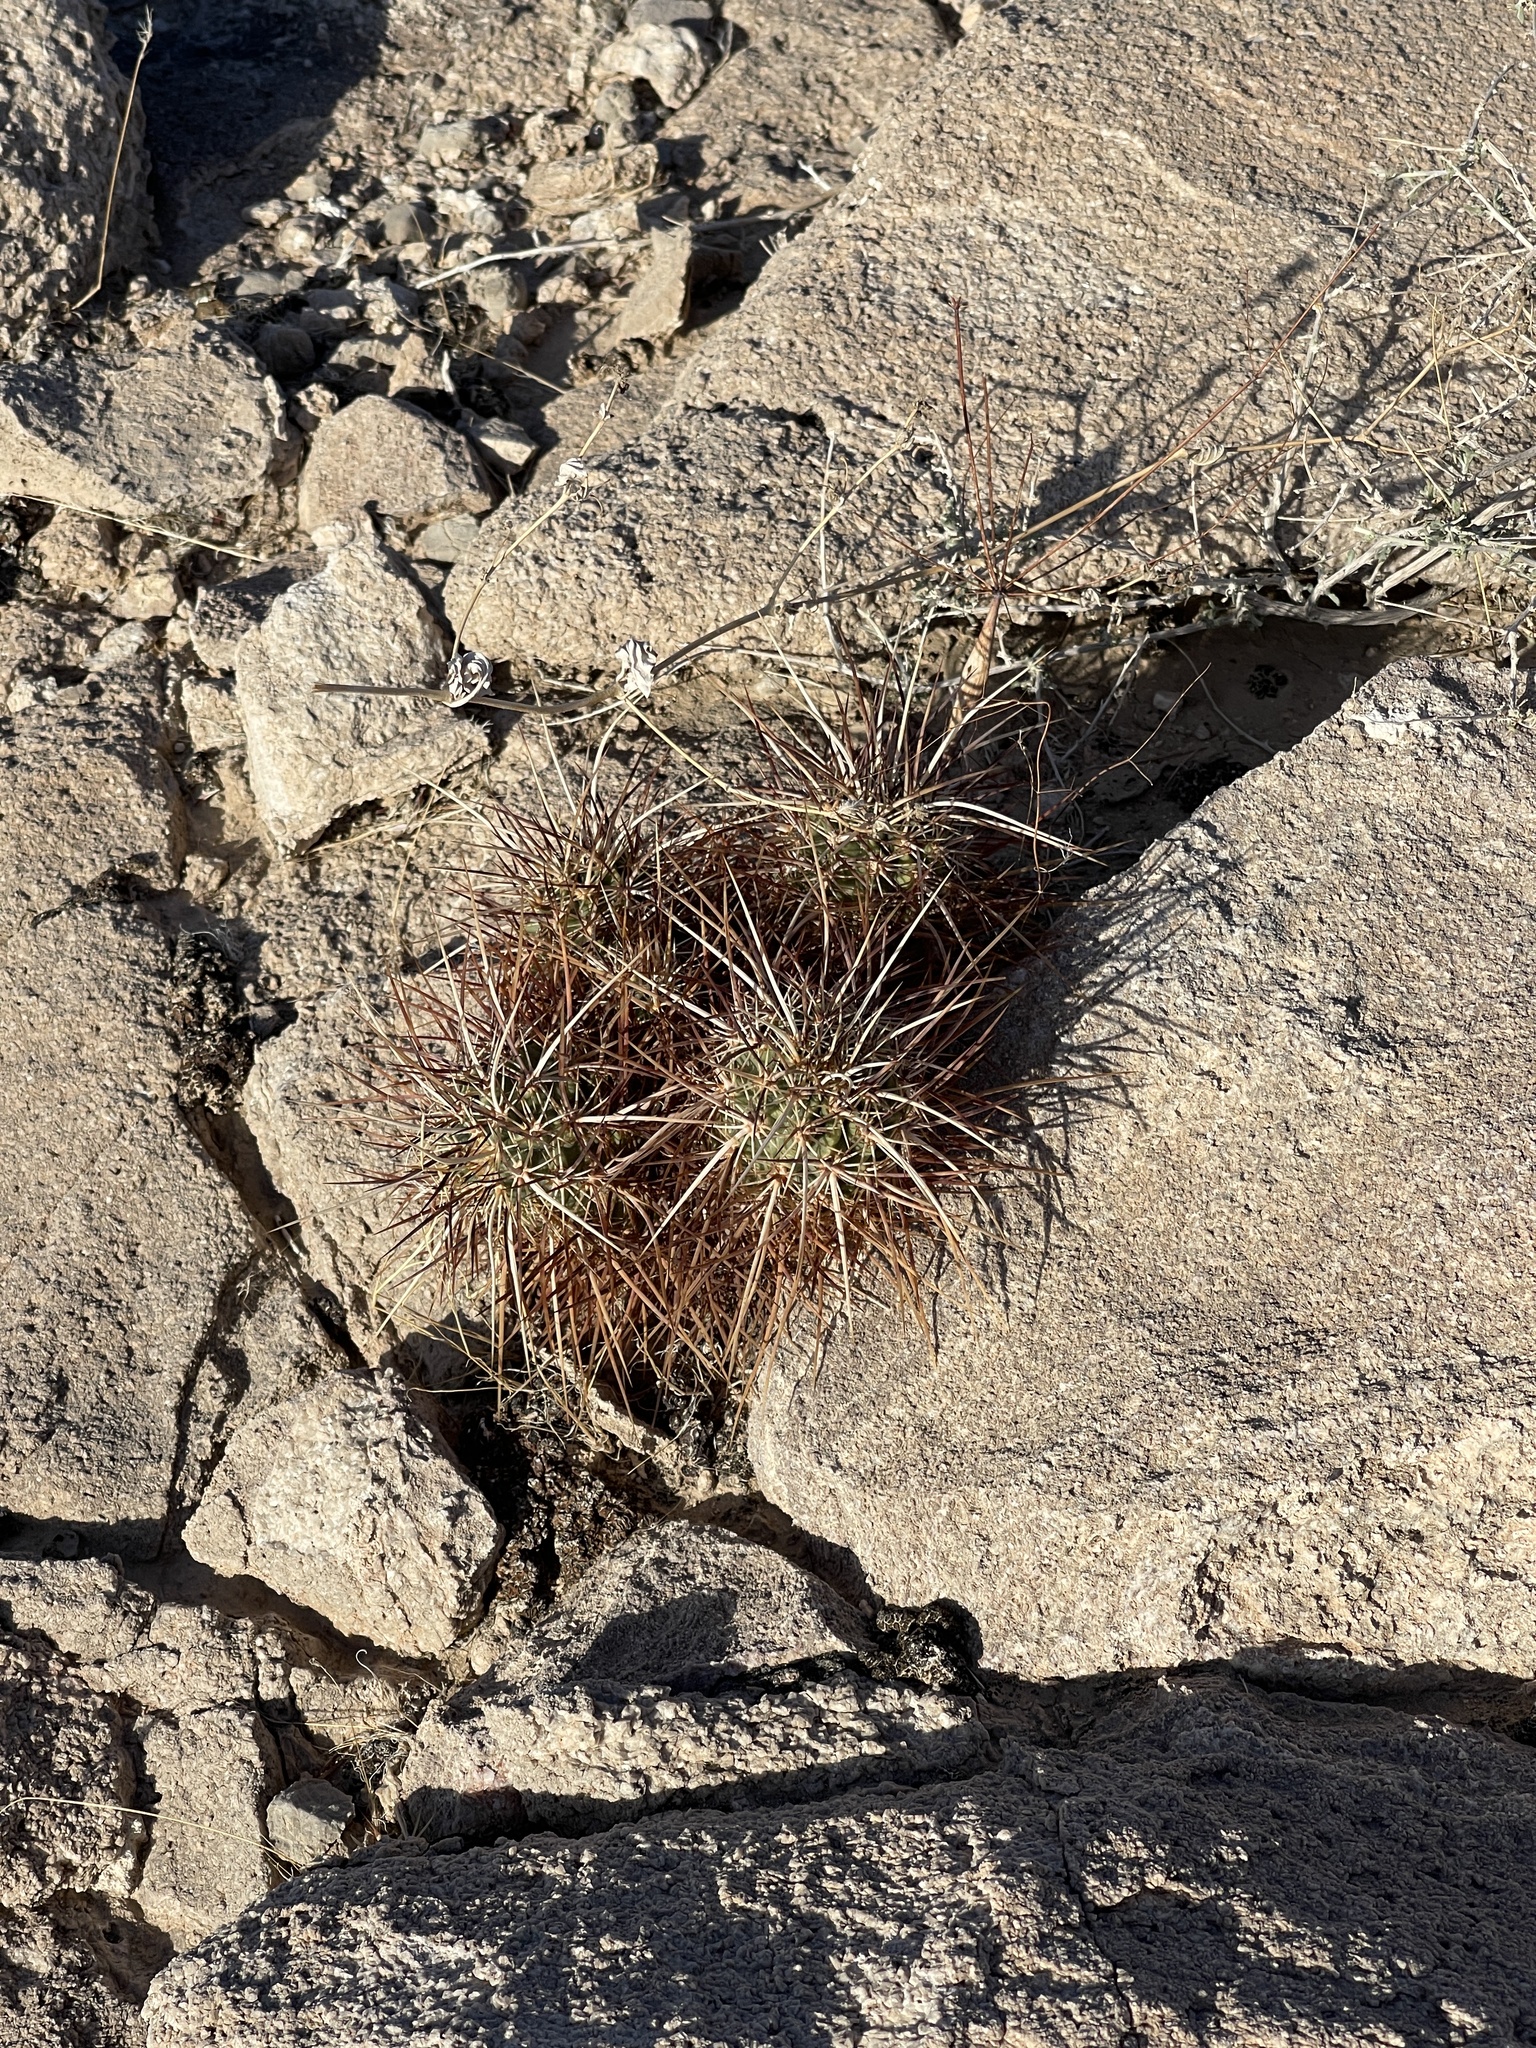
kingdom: Plantae
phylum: Tracheophyta
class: Magnoliopsida
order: Caryophyllales
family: Cactaceae
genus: Echinocereus
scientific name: Echinocereus engelmannii
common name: Engelmann's hedgehog cactus
